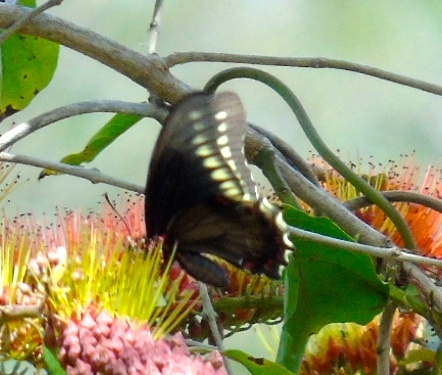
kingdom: Animalia
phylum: Arthropoda
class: Insecta
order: Lepidoptera
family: Papilionidae
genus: Battus
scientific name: Battus polydamas
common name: Polydamas swallowtail
